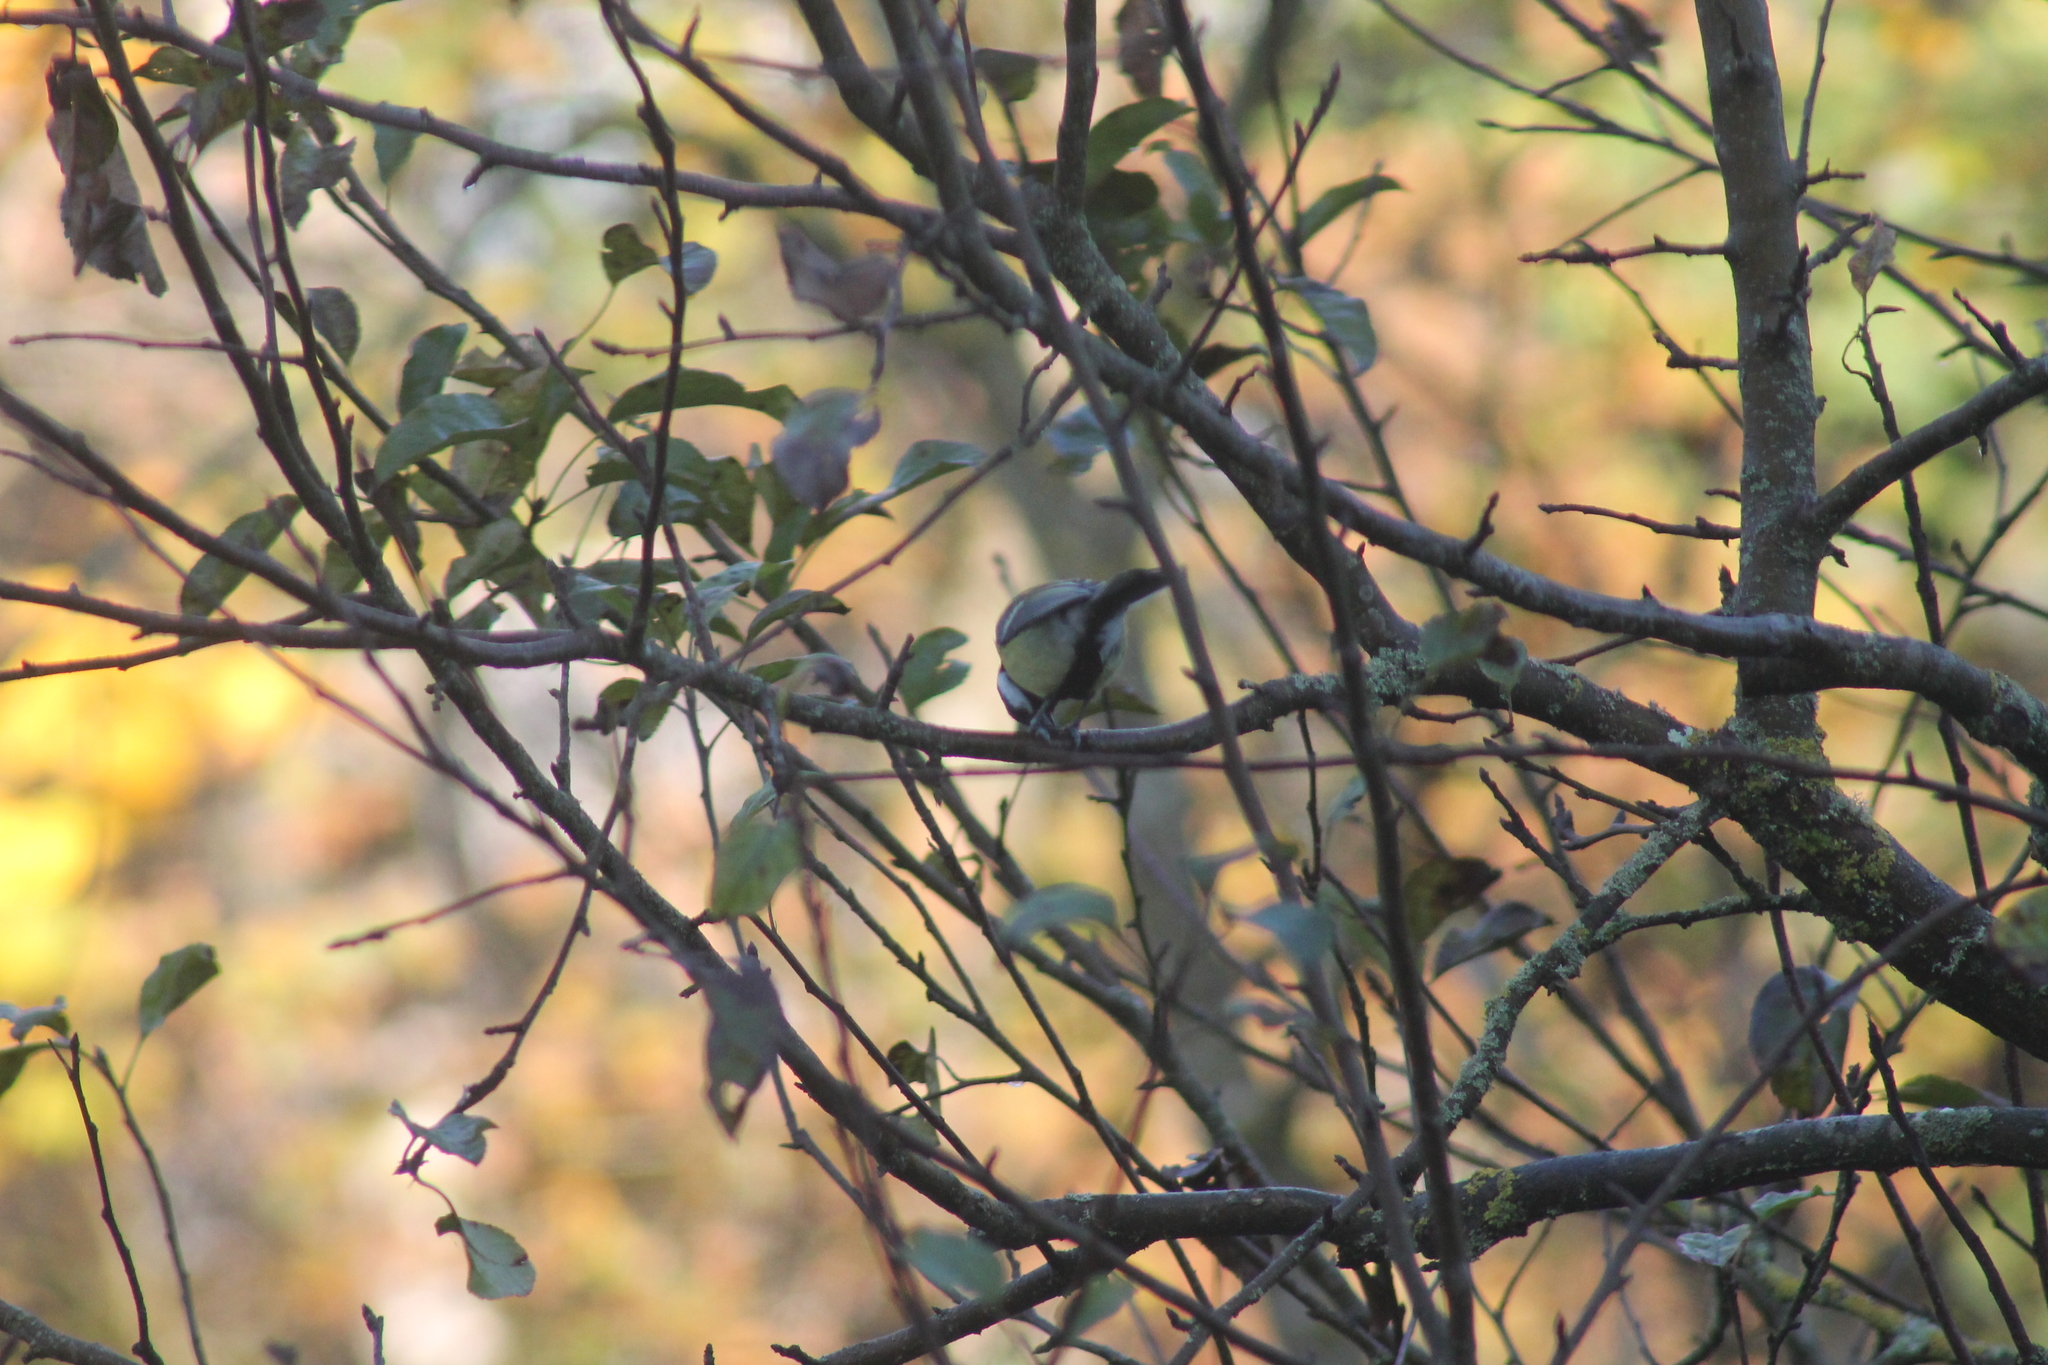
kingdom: Animalia
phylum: Chordata
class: Aves
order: Passeriformes
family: Paridae
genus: Parus
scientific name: Parus major
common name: Great tit
